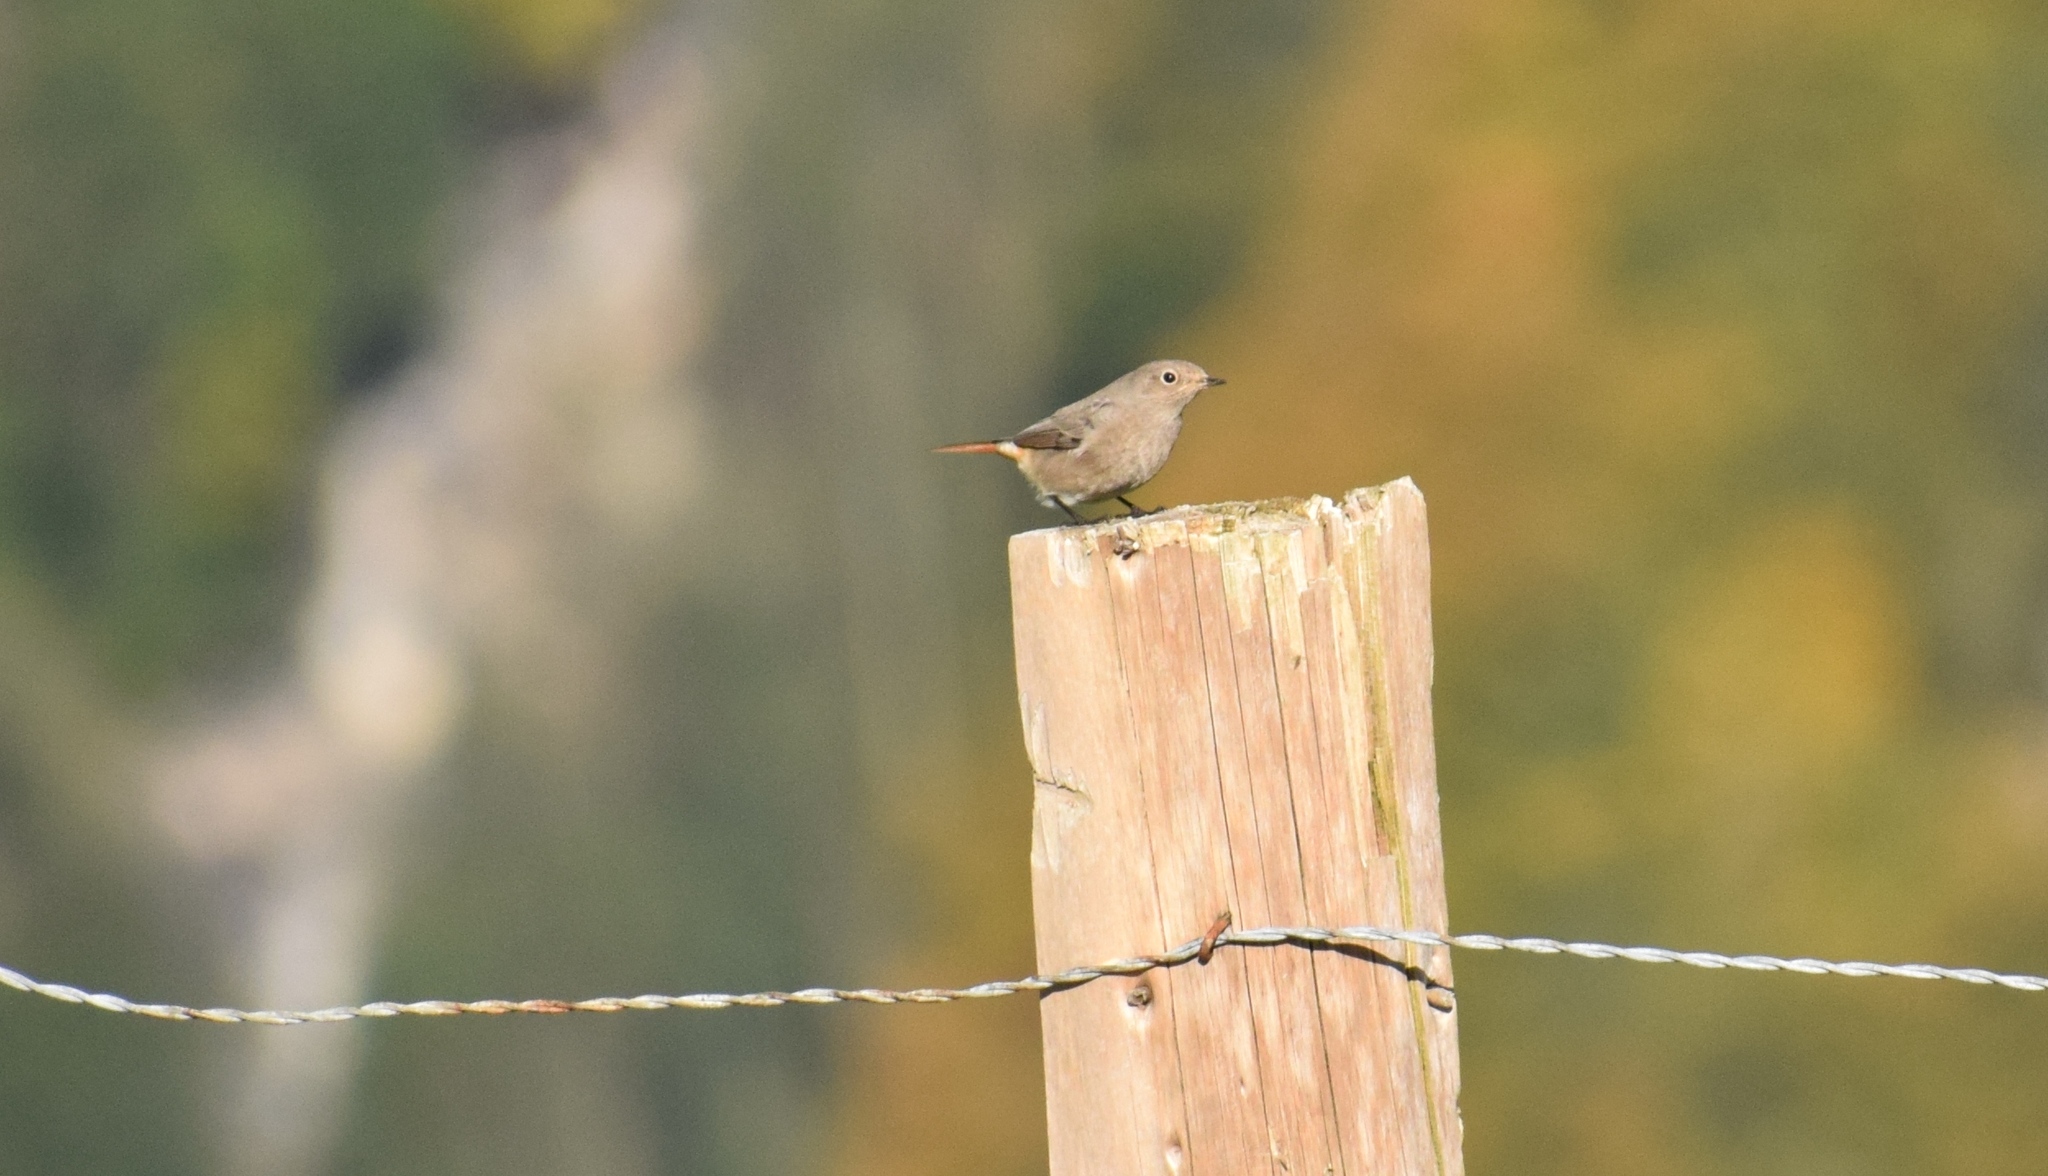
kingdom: Animalia
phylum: Chordata
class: Aves
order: Passeriformes
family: Muscicapidae
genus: Phoenicurus
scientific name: Phoenicurus ochruros
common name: Black redstart
